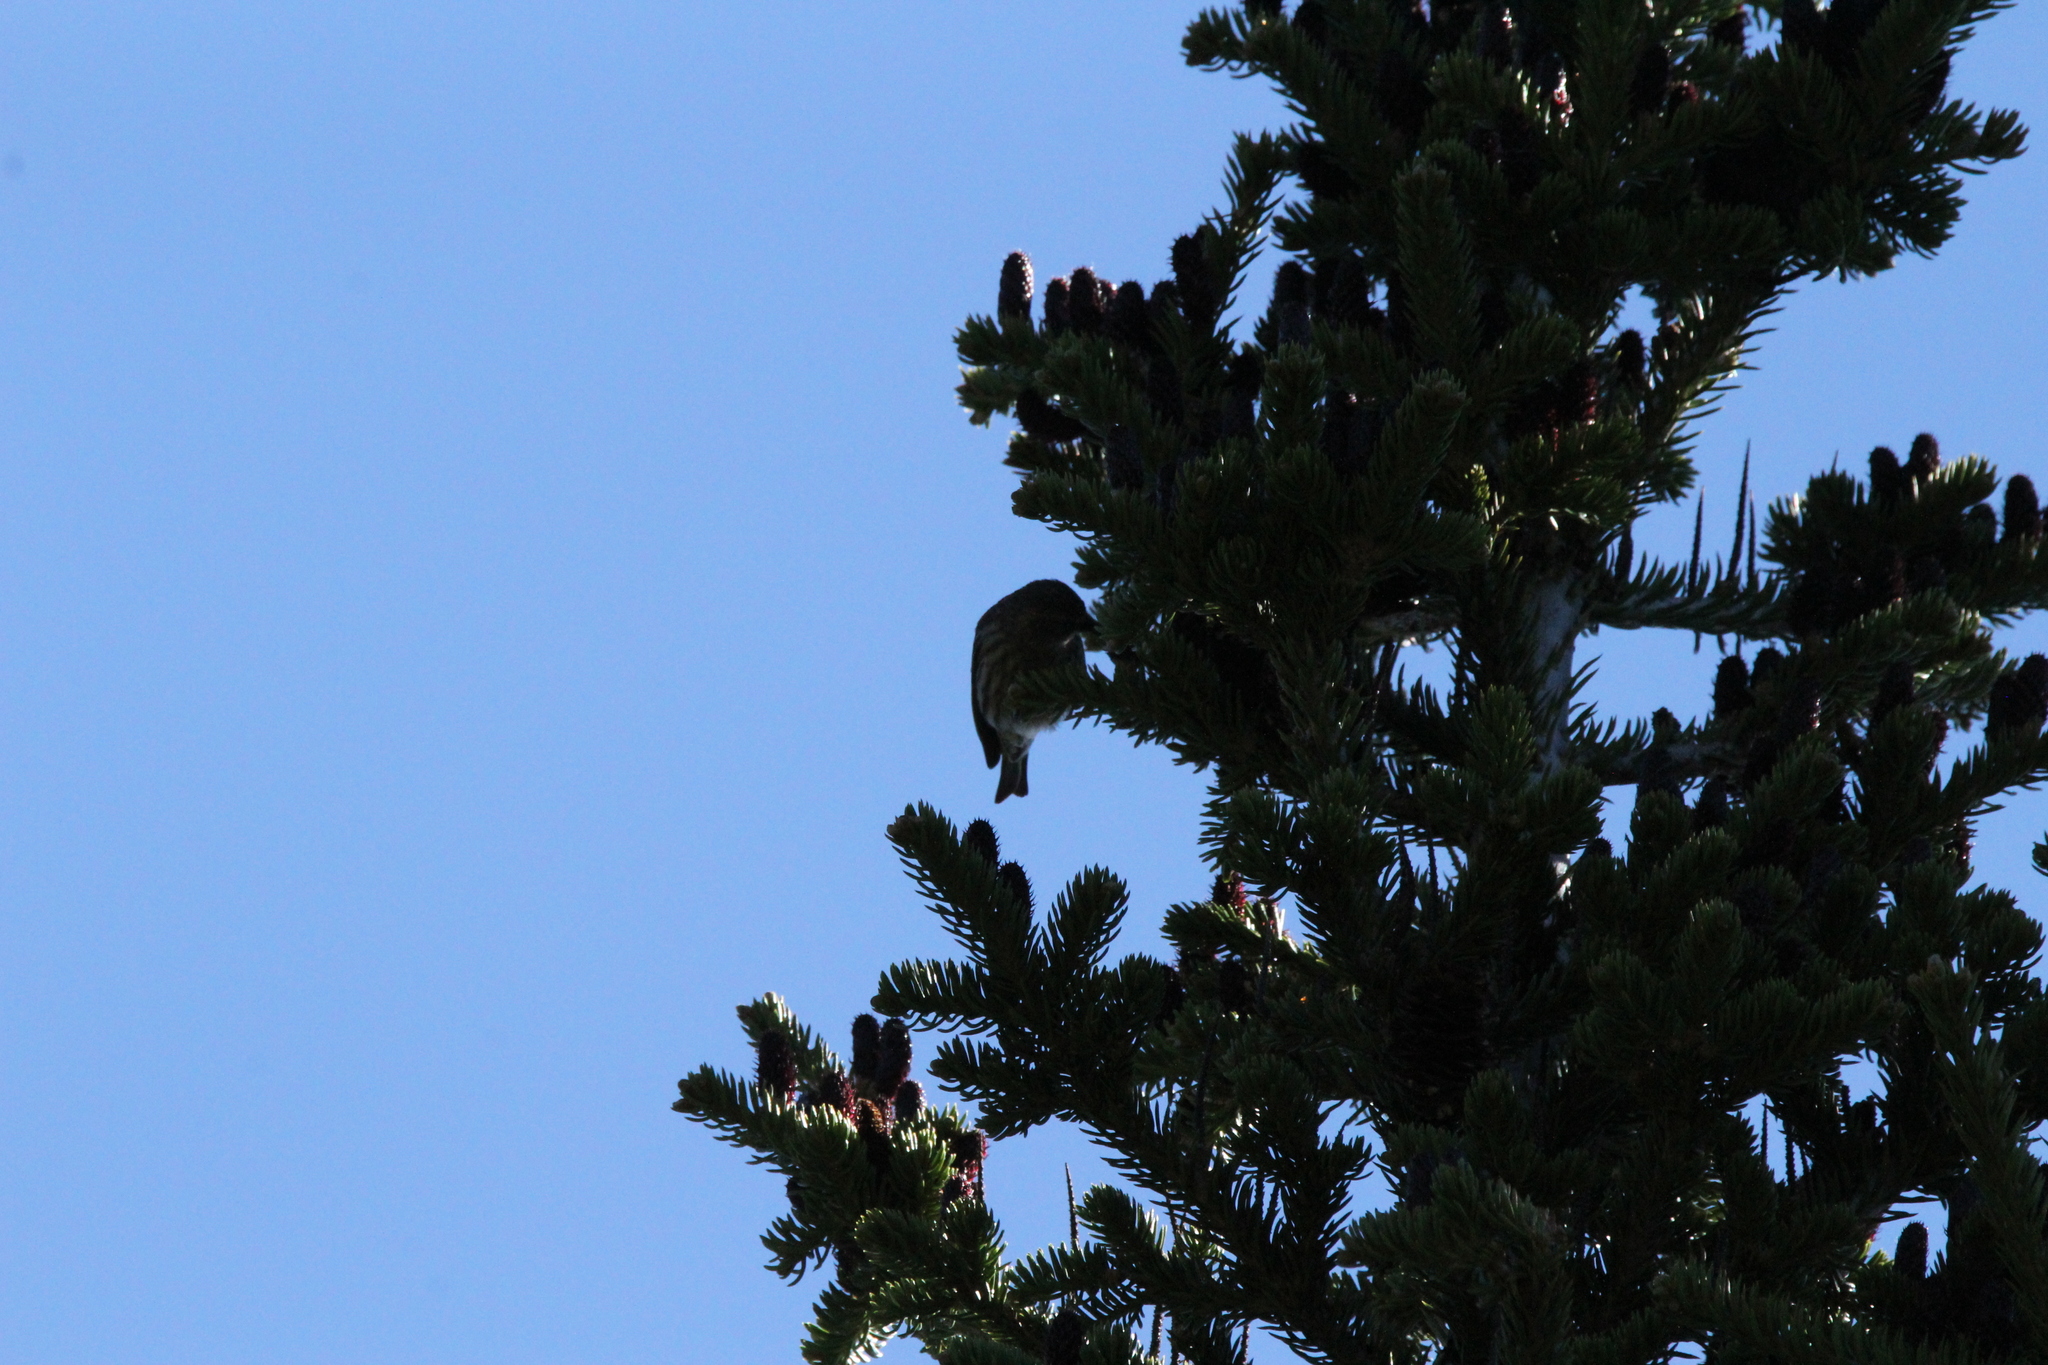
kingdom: Animalia
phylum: Chordata
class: Aves
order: Passeriformes
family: Fringillidae
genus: Spinus
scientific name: Spinus pinus
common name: Pine siskin
